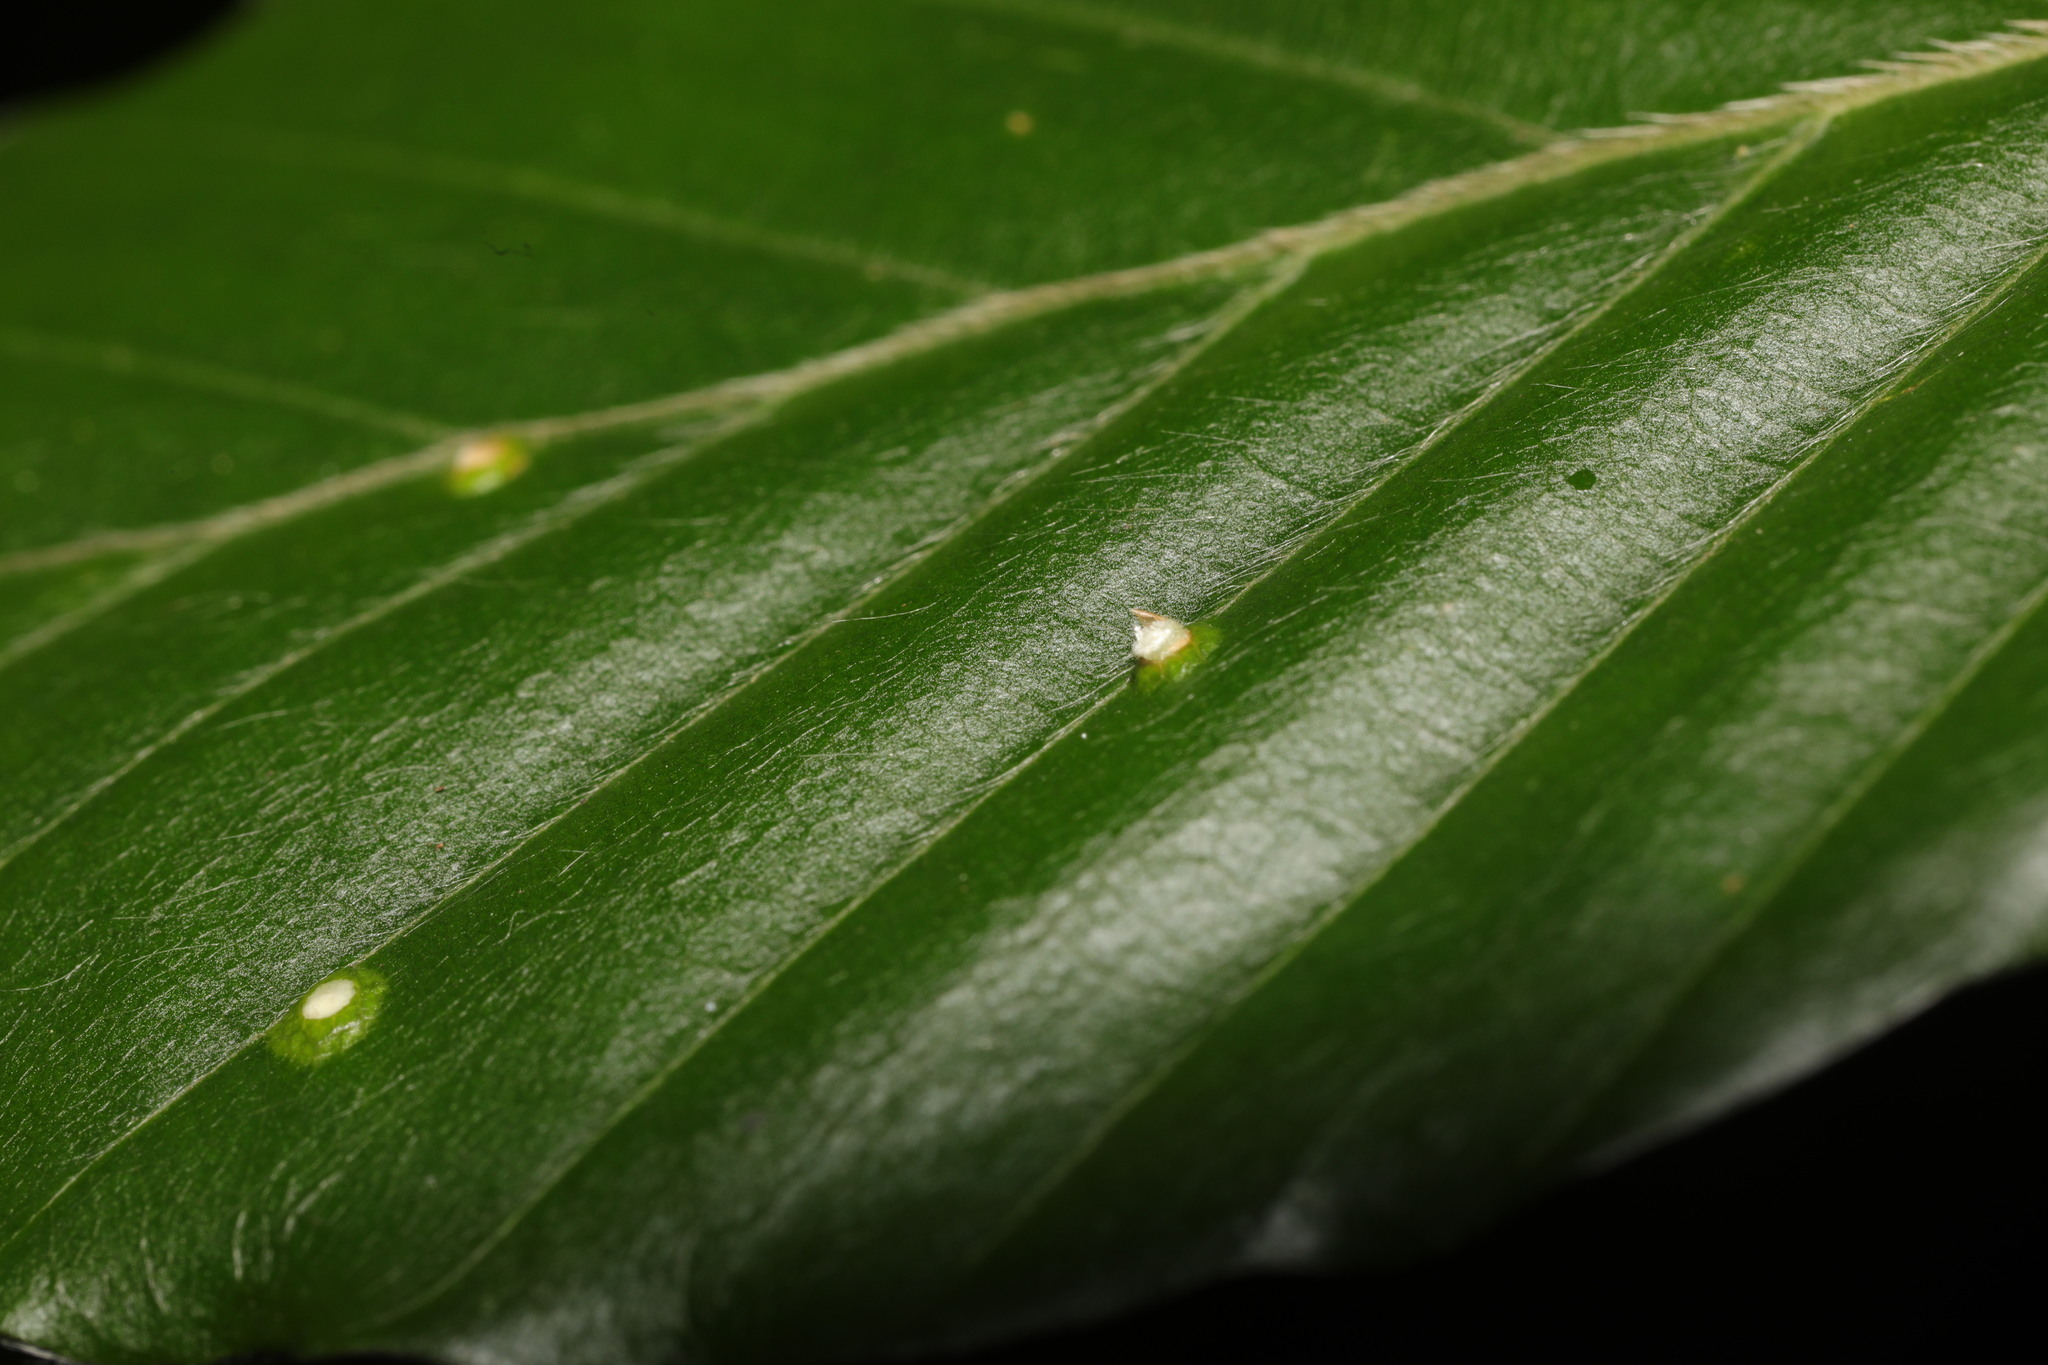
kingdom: Animalia
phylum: Arthropoda
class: Insecta
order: Diptera
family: Cecidomyiidae
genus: Hartigiola
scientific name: Hartigiola annulipes
